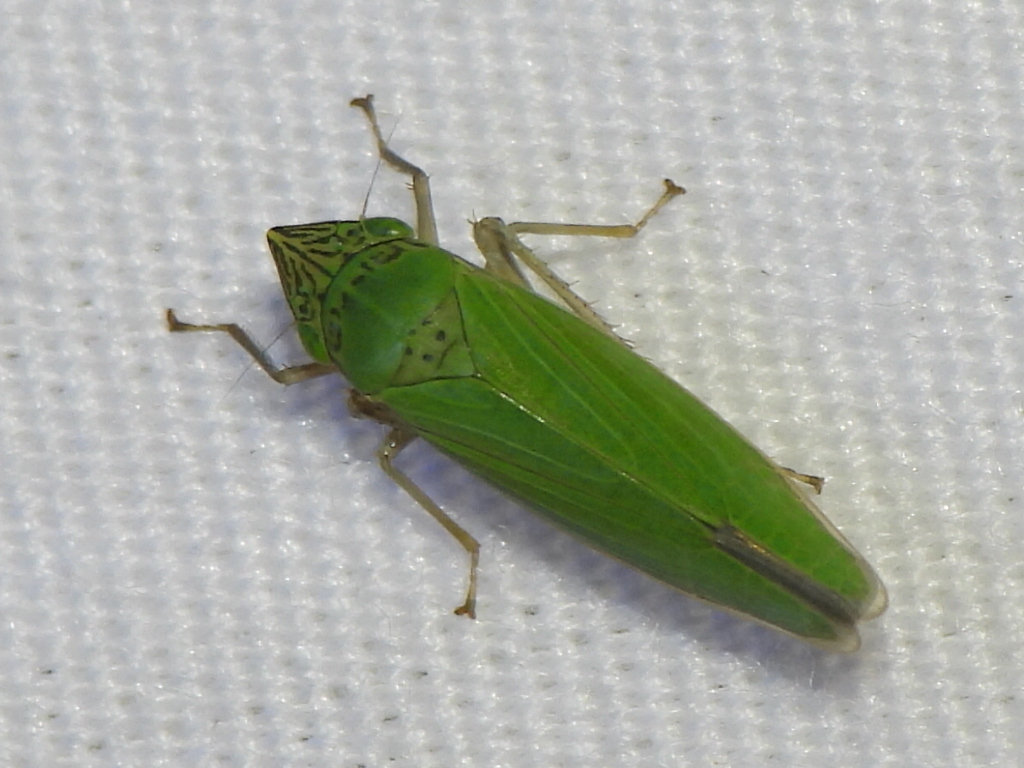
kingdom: Animalia
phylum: Arthropoda
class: Insecta
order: Hemiptera
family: Cicadellidae
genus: Draeculacephala
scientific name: Draeculacephala inscripta
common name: Leafhopper
